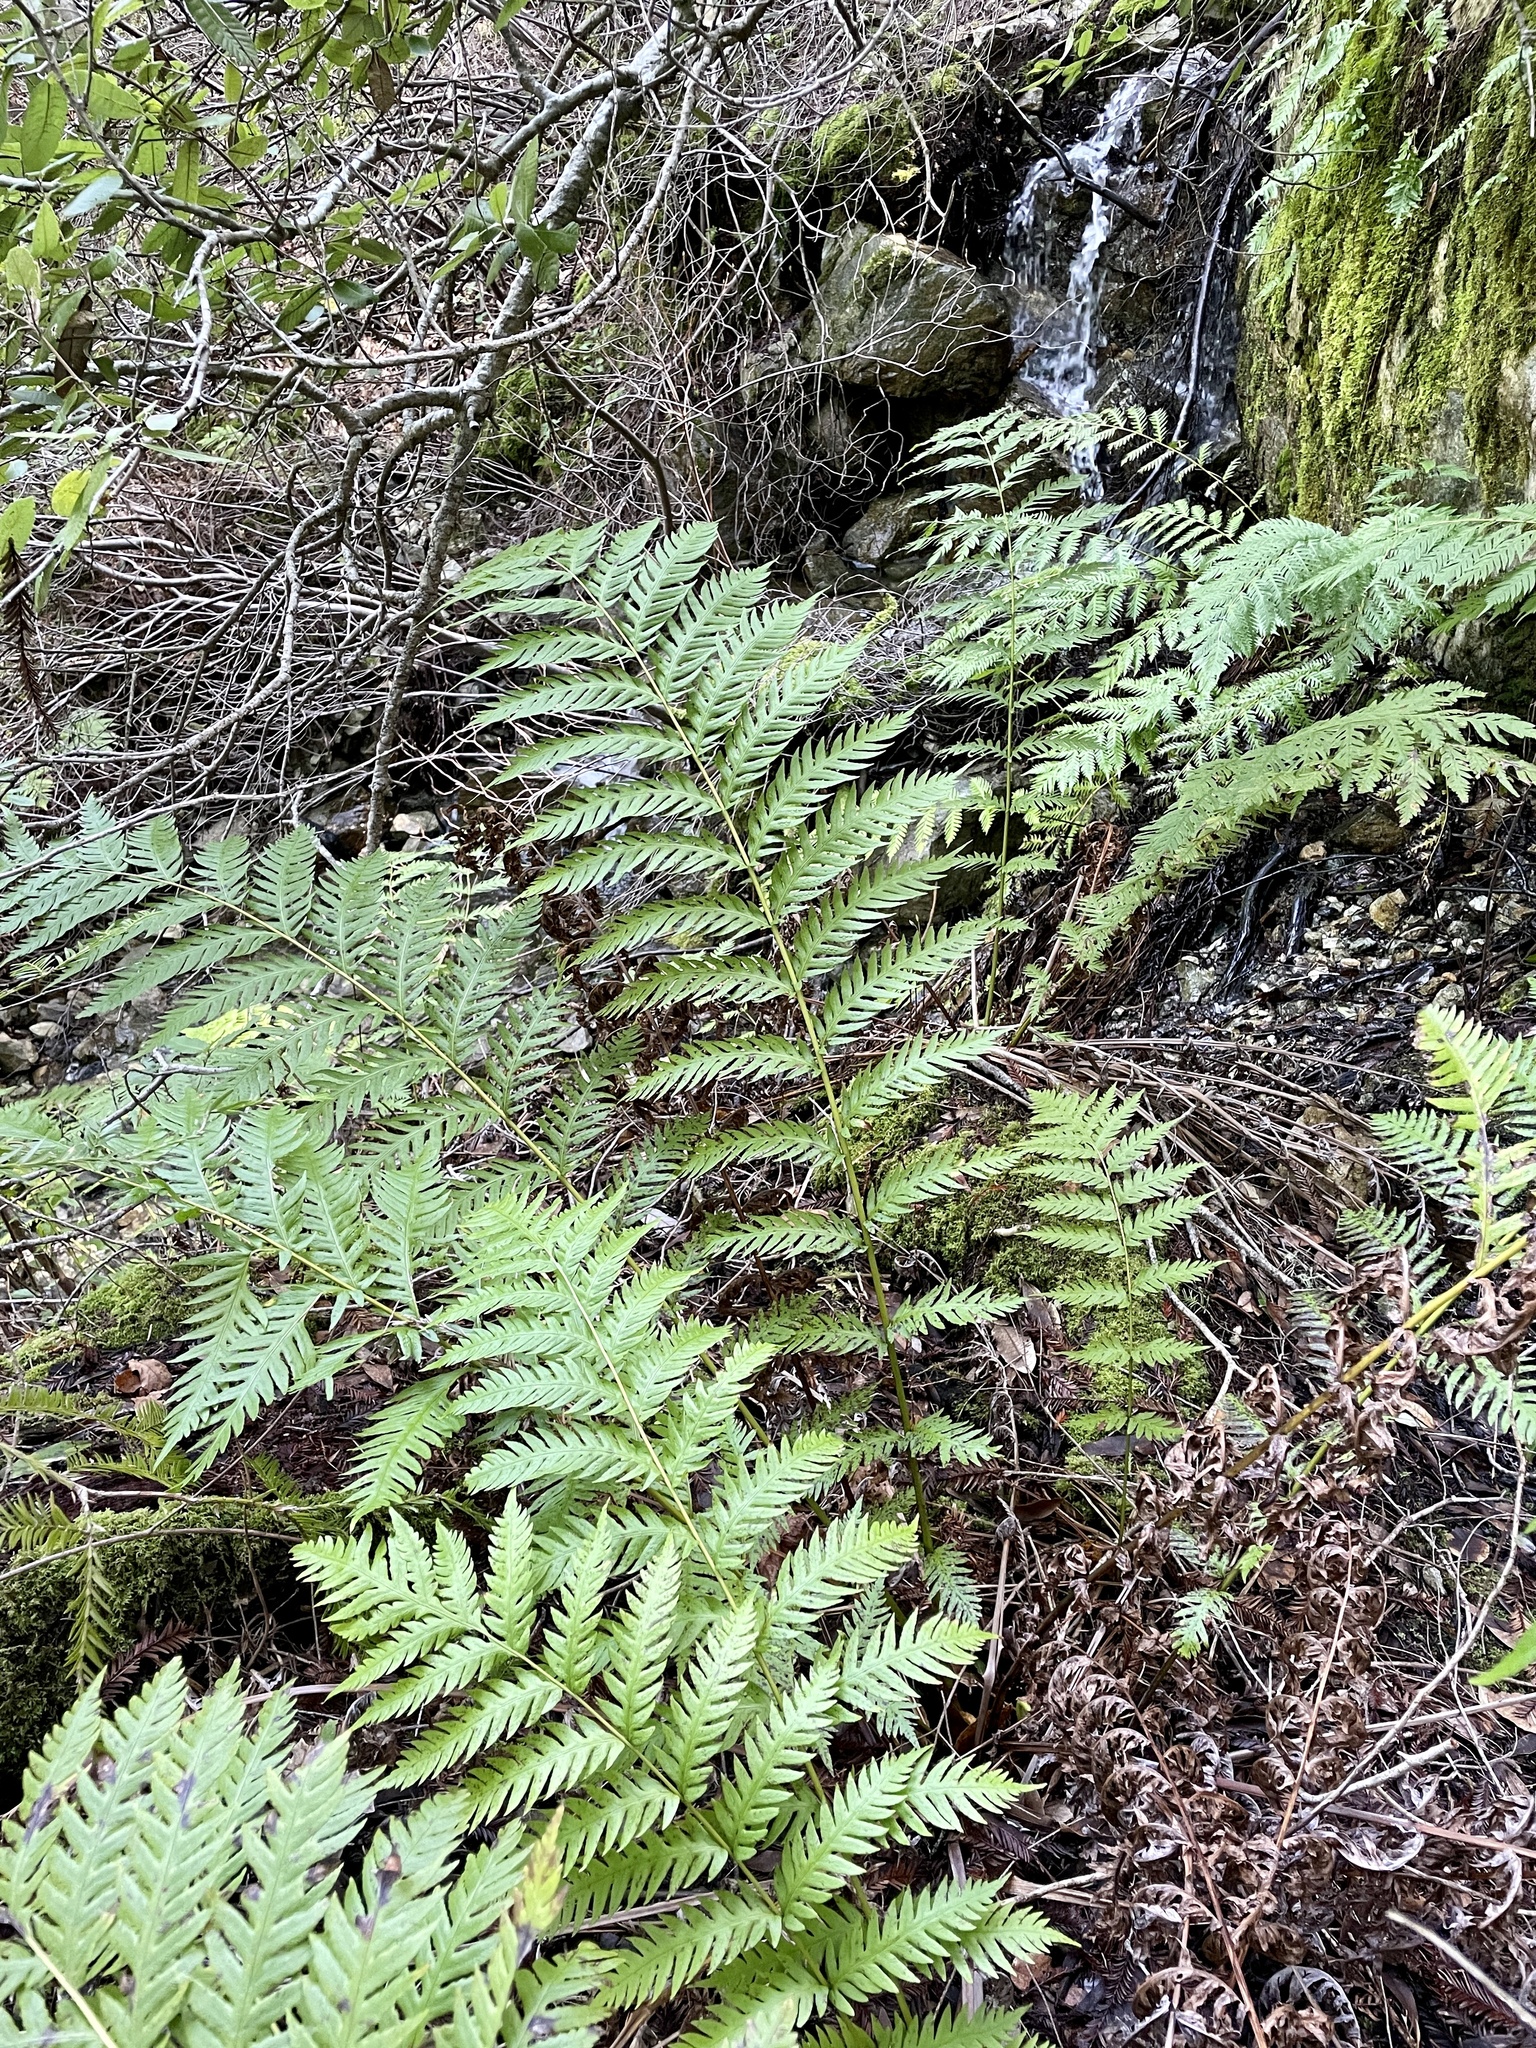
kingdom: Plantae
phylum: Tracheophyta
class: Polypodiopsida
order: Polypodiales
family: Blechnaceae
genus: Woodwardia
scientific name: Woodwardia fimbriata
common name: Giant chain fern
